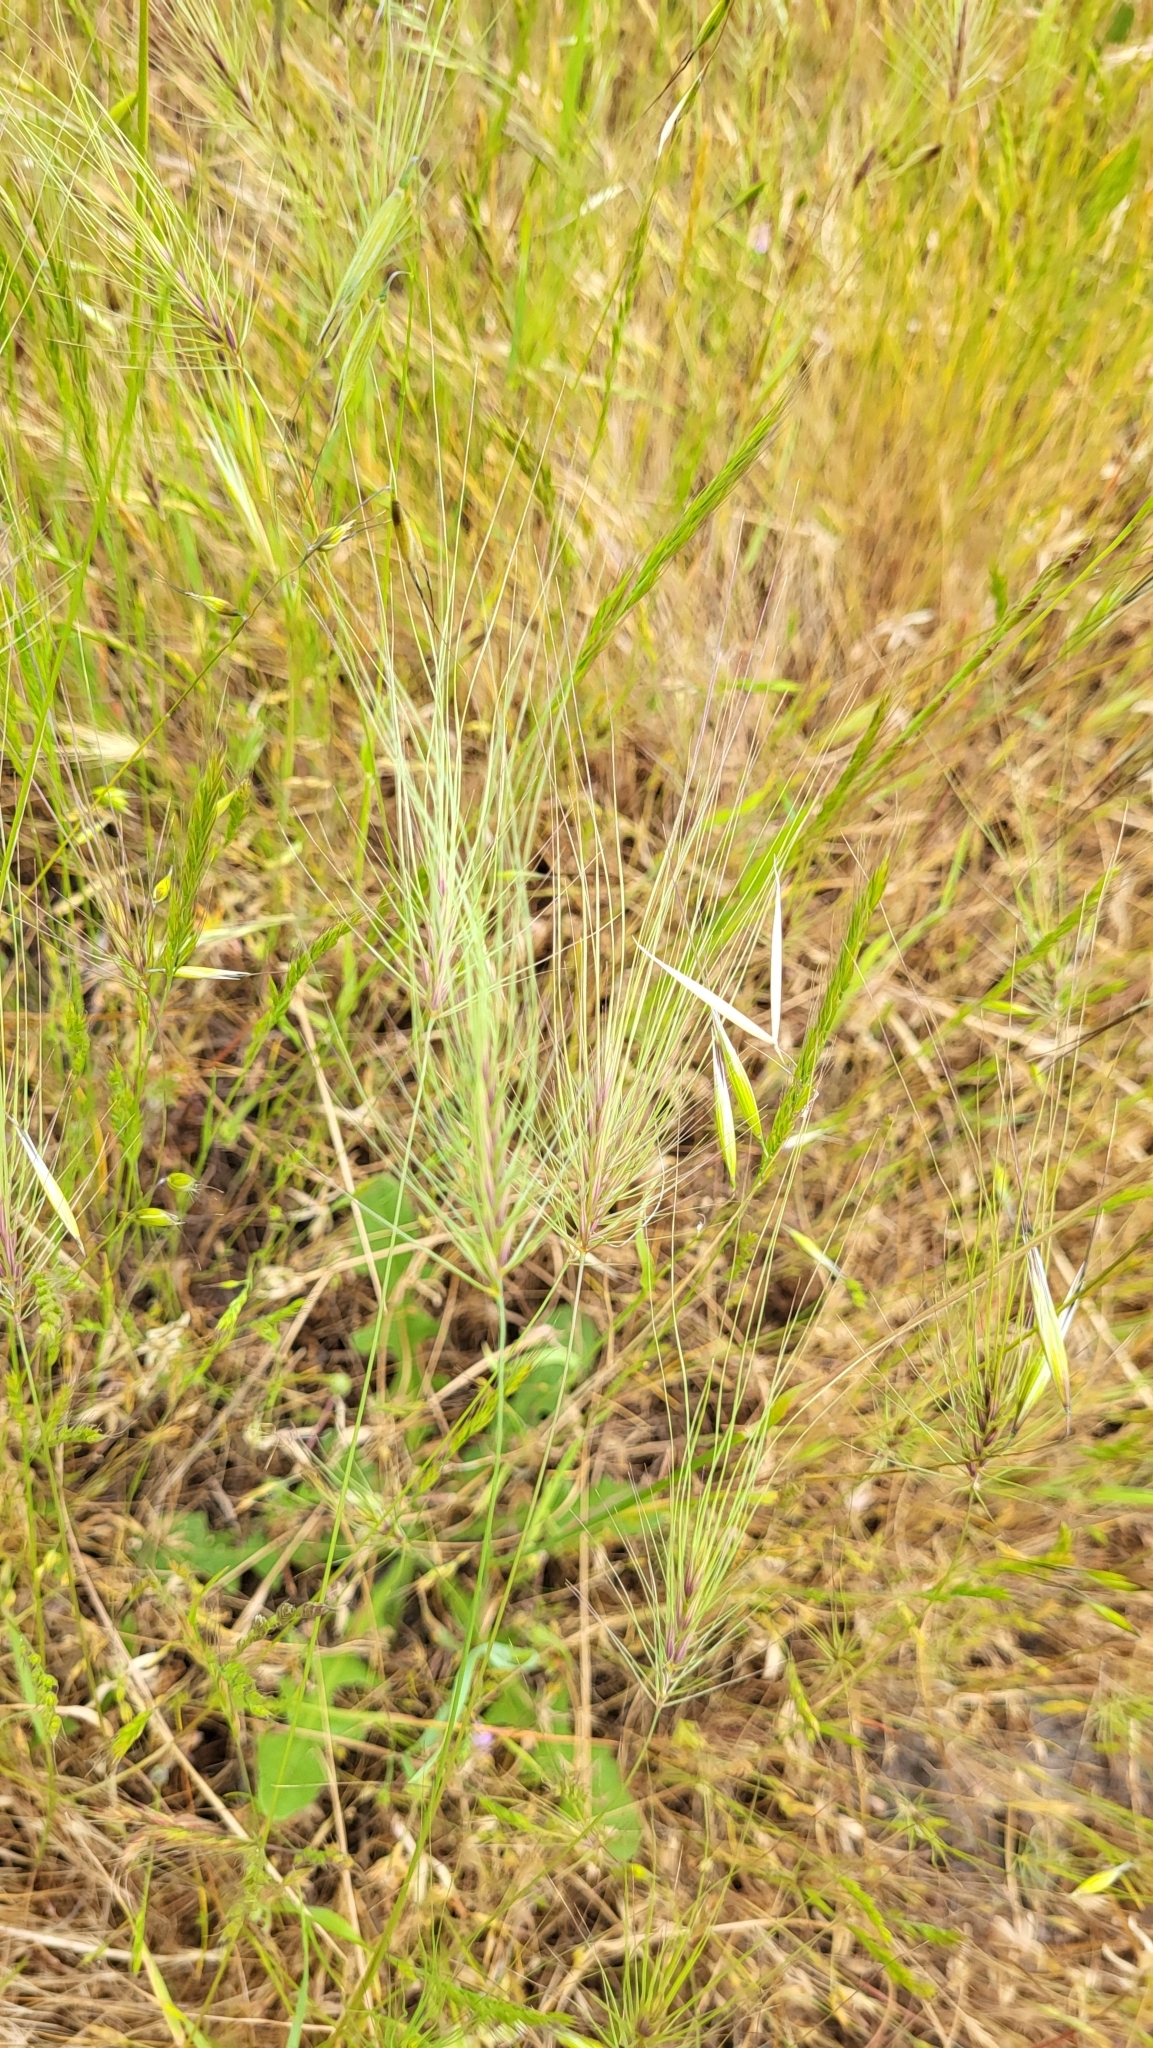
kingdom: Plantae
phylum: Tracheophyta
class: Liliopsida
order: Poales
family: Poaceae
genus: Taeniatherum
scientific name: Taeniatherum caput-medusae
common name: Medusahead
